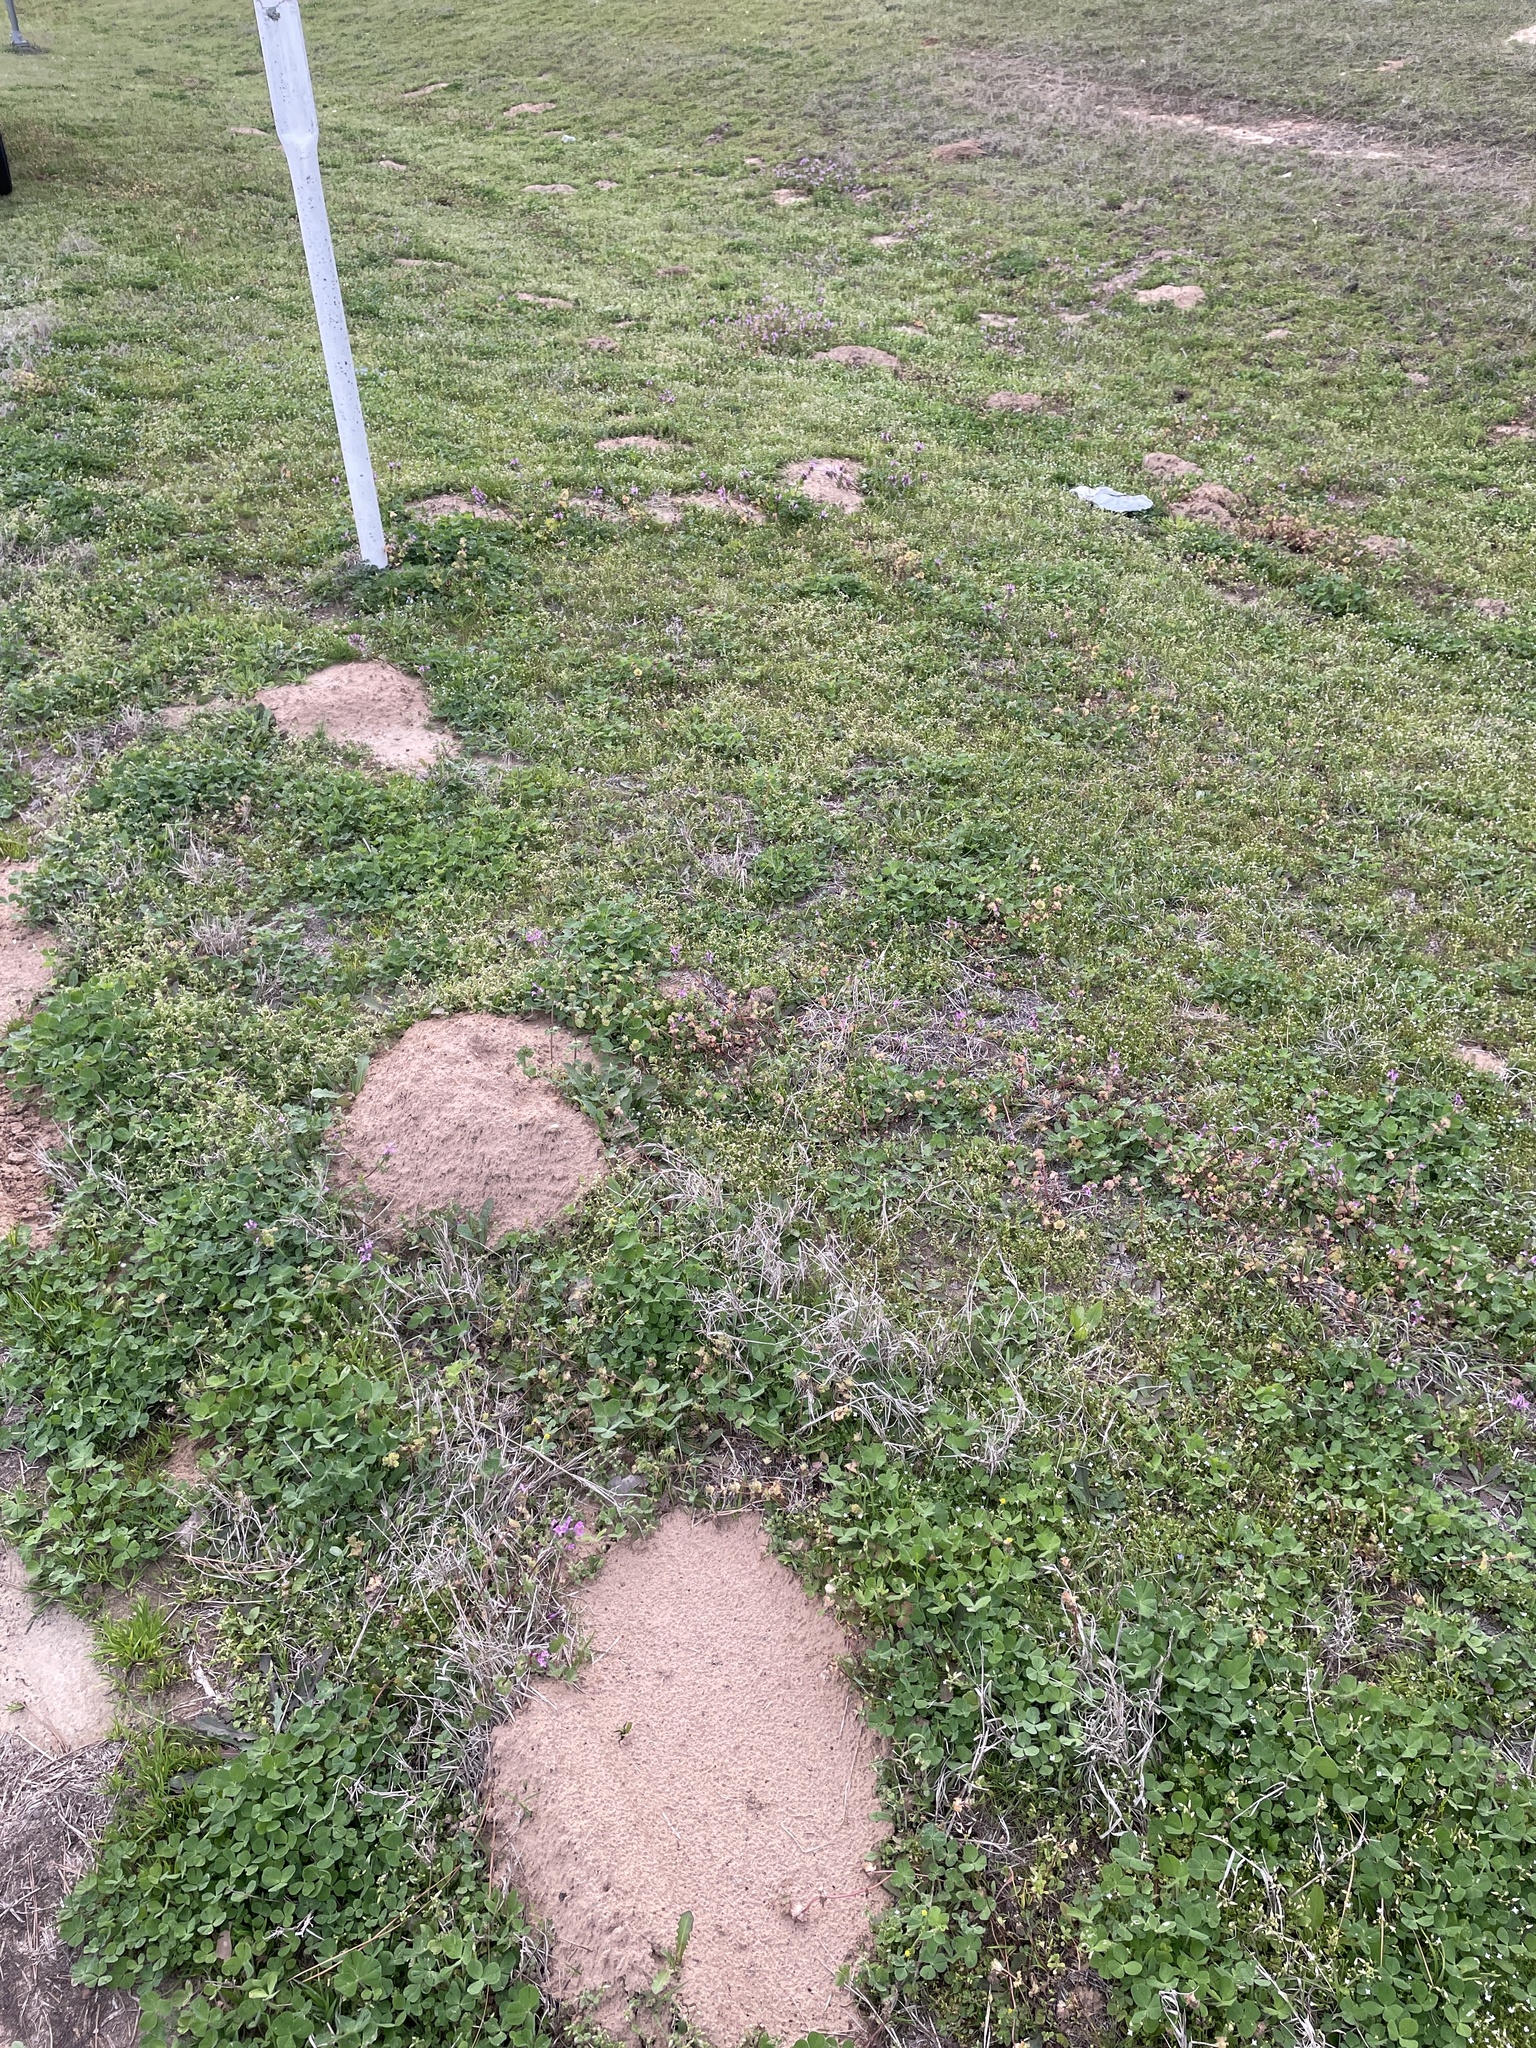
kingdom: Animalia
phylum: Chordata
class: Mammalia
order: Rodentia
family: Geomyidae
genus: Geomys
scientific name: Geomys breviceps
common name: Baird's pocket gopher
